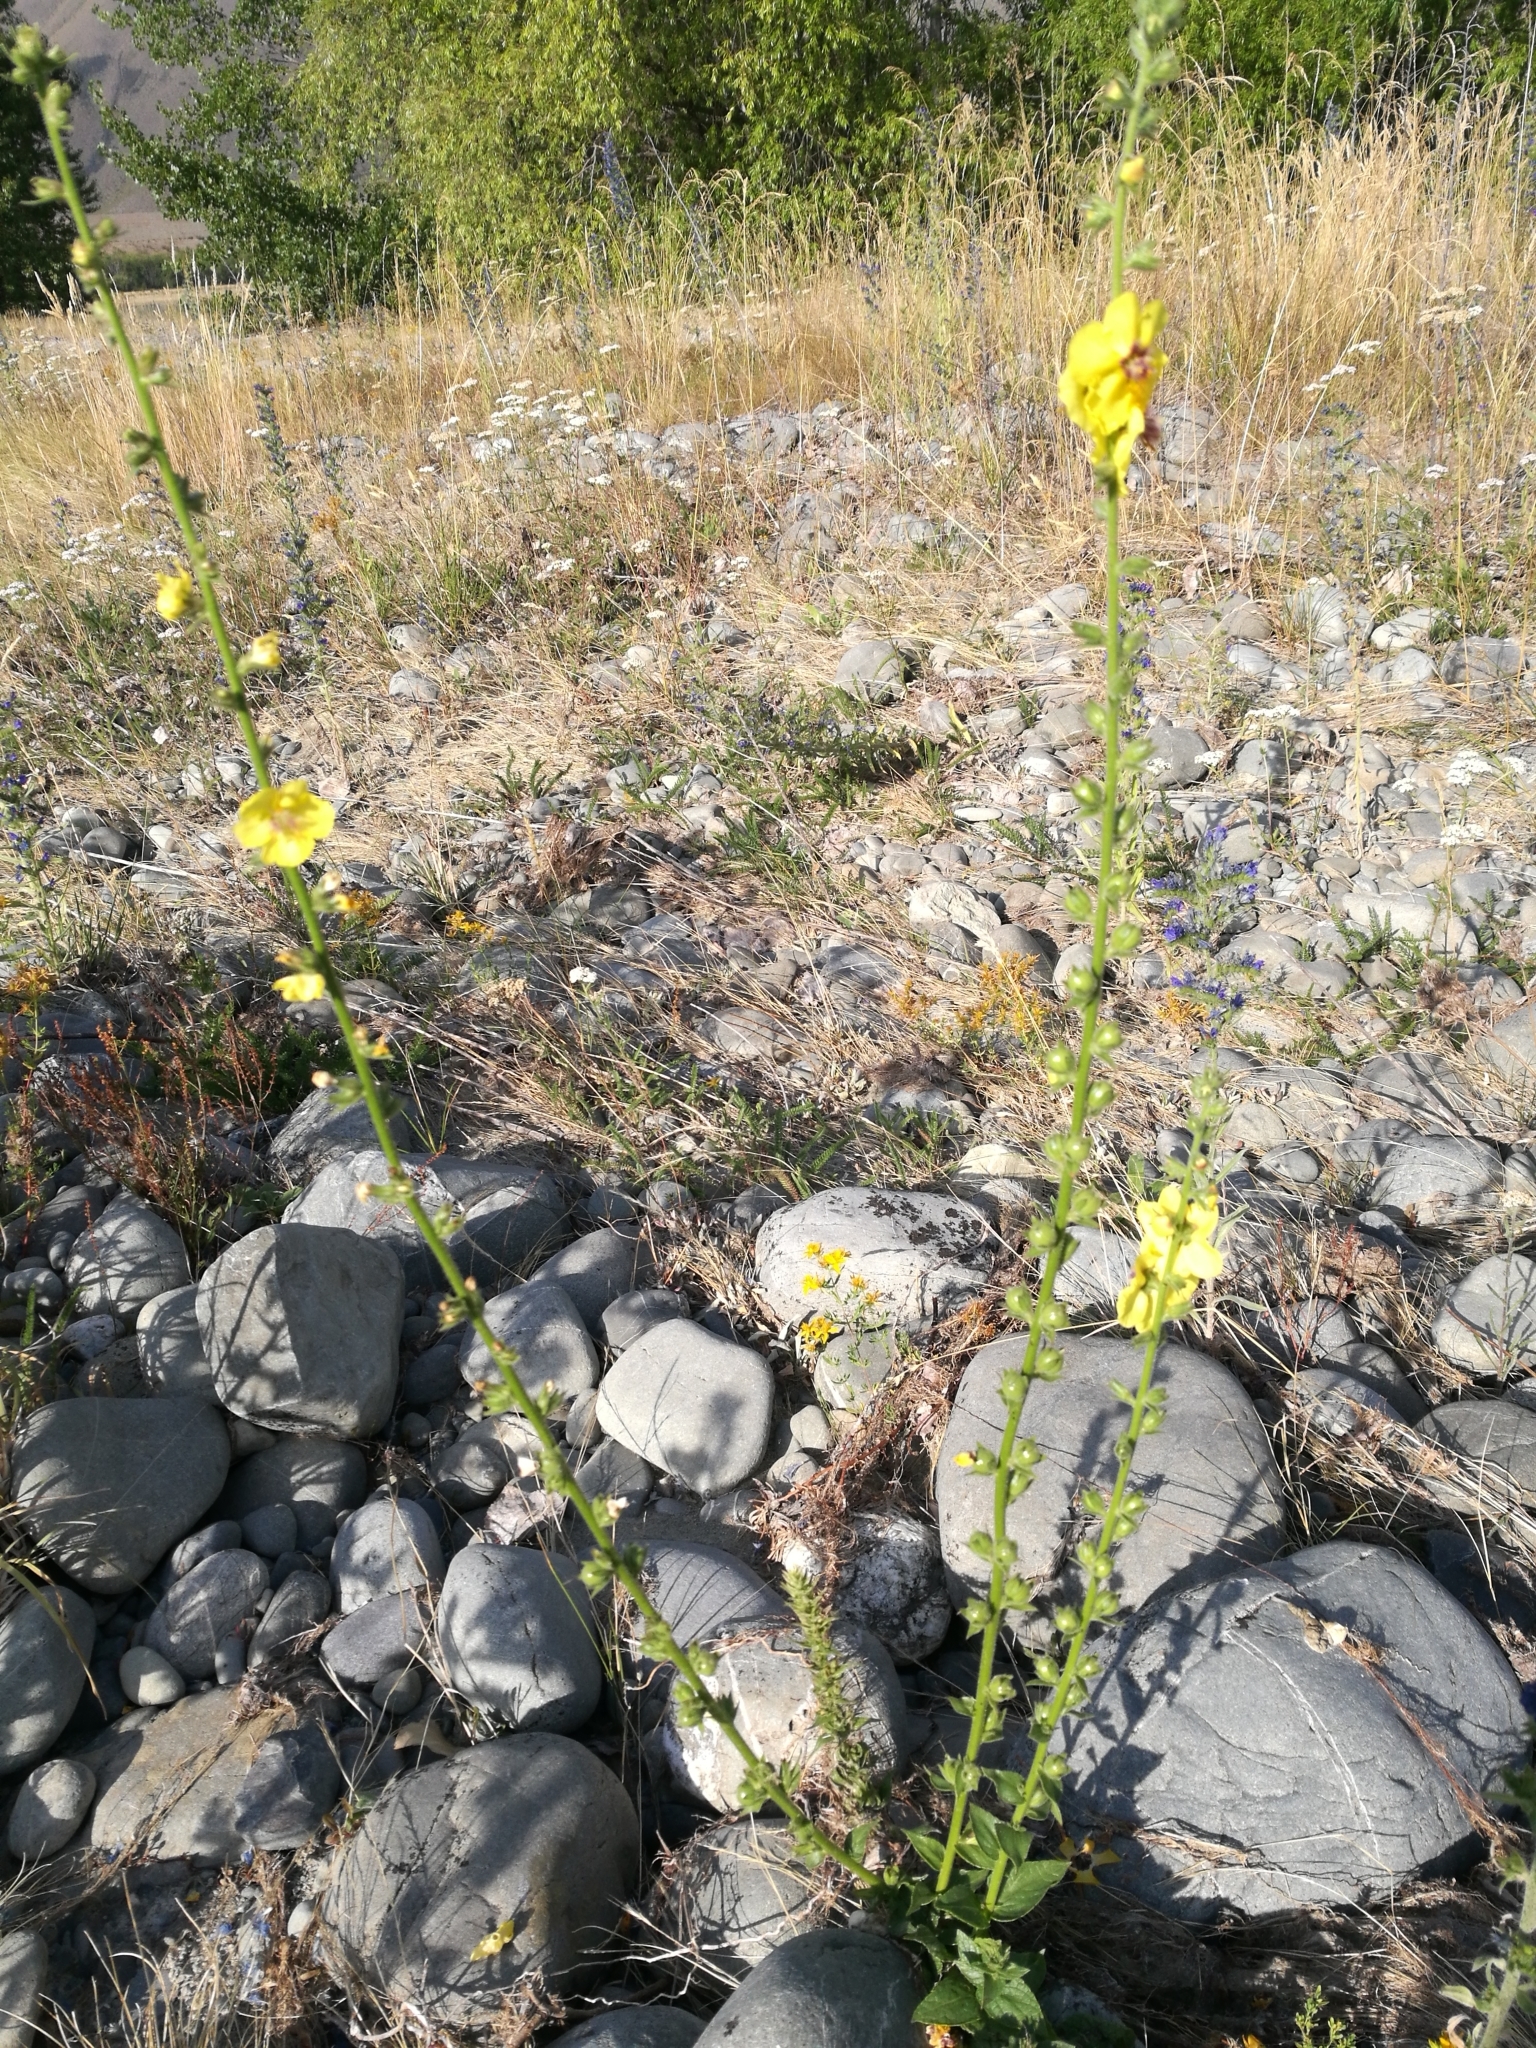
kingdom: Plantae
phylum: Tracheophyta
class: Magnoliopsida
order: Lamiales
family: Scrophulariaceae
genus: Verbascum
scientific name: Verbascum virgatum
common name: Twiggy mullein
